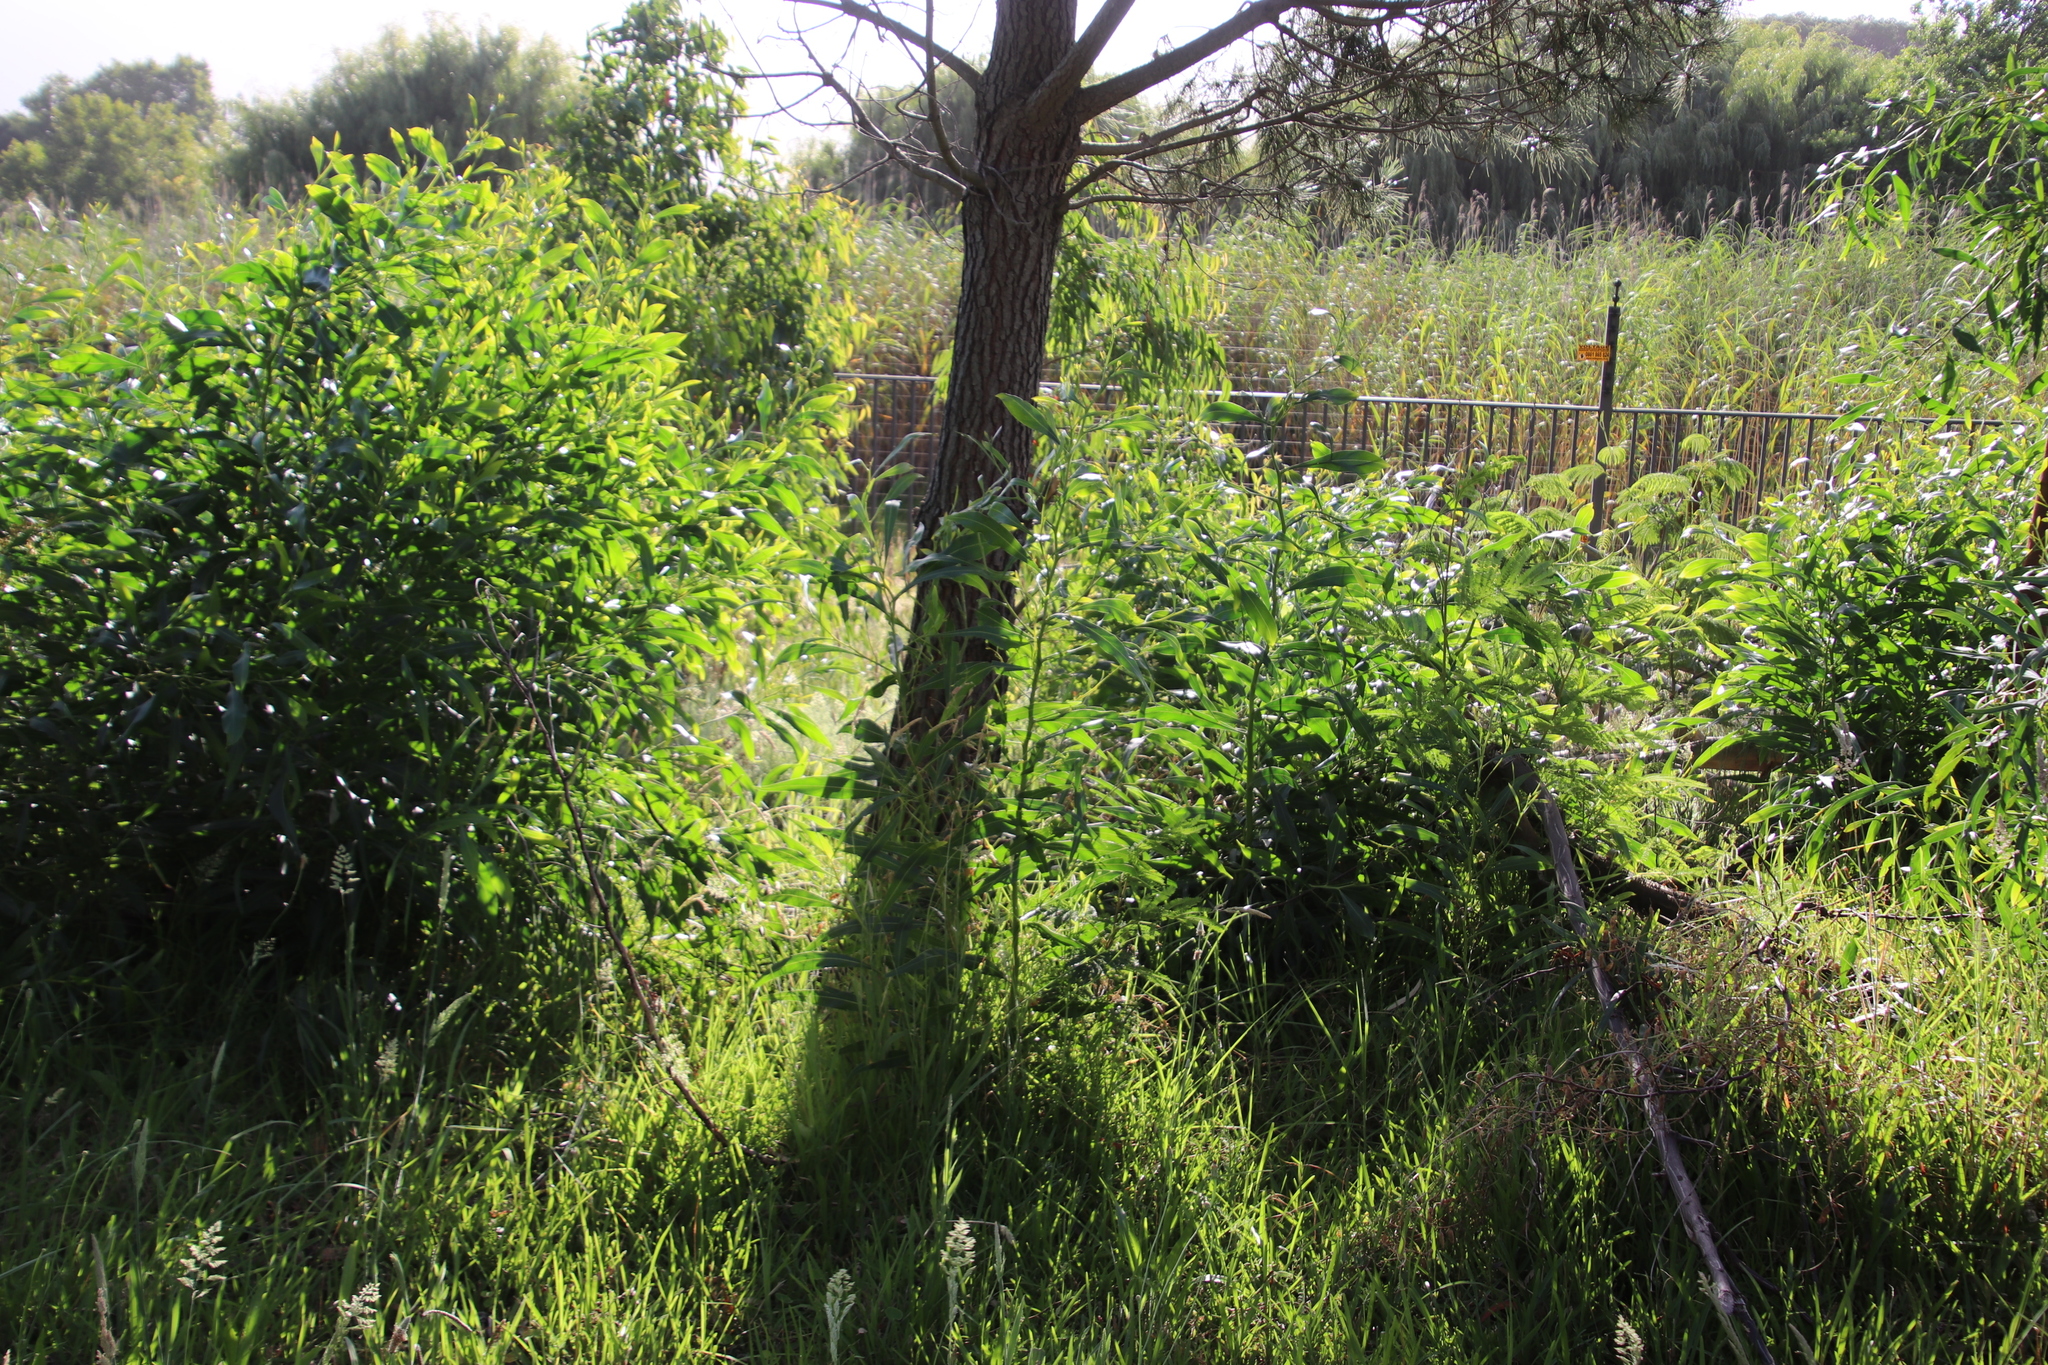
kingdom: Plantae
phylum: Tracheophyta
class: Magnoliopsida
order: Fabales
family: Fabaceae
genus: Acacia
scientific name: Acacia saligna
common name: Orange wattle
